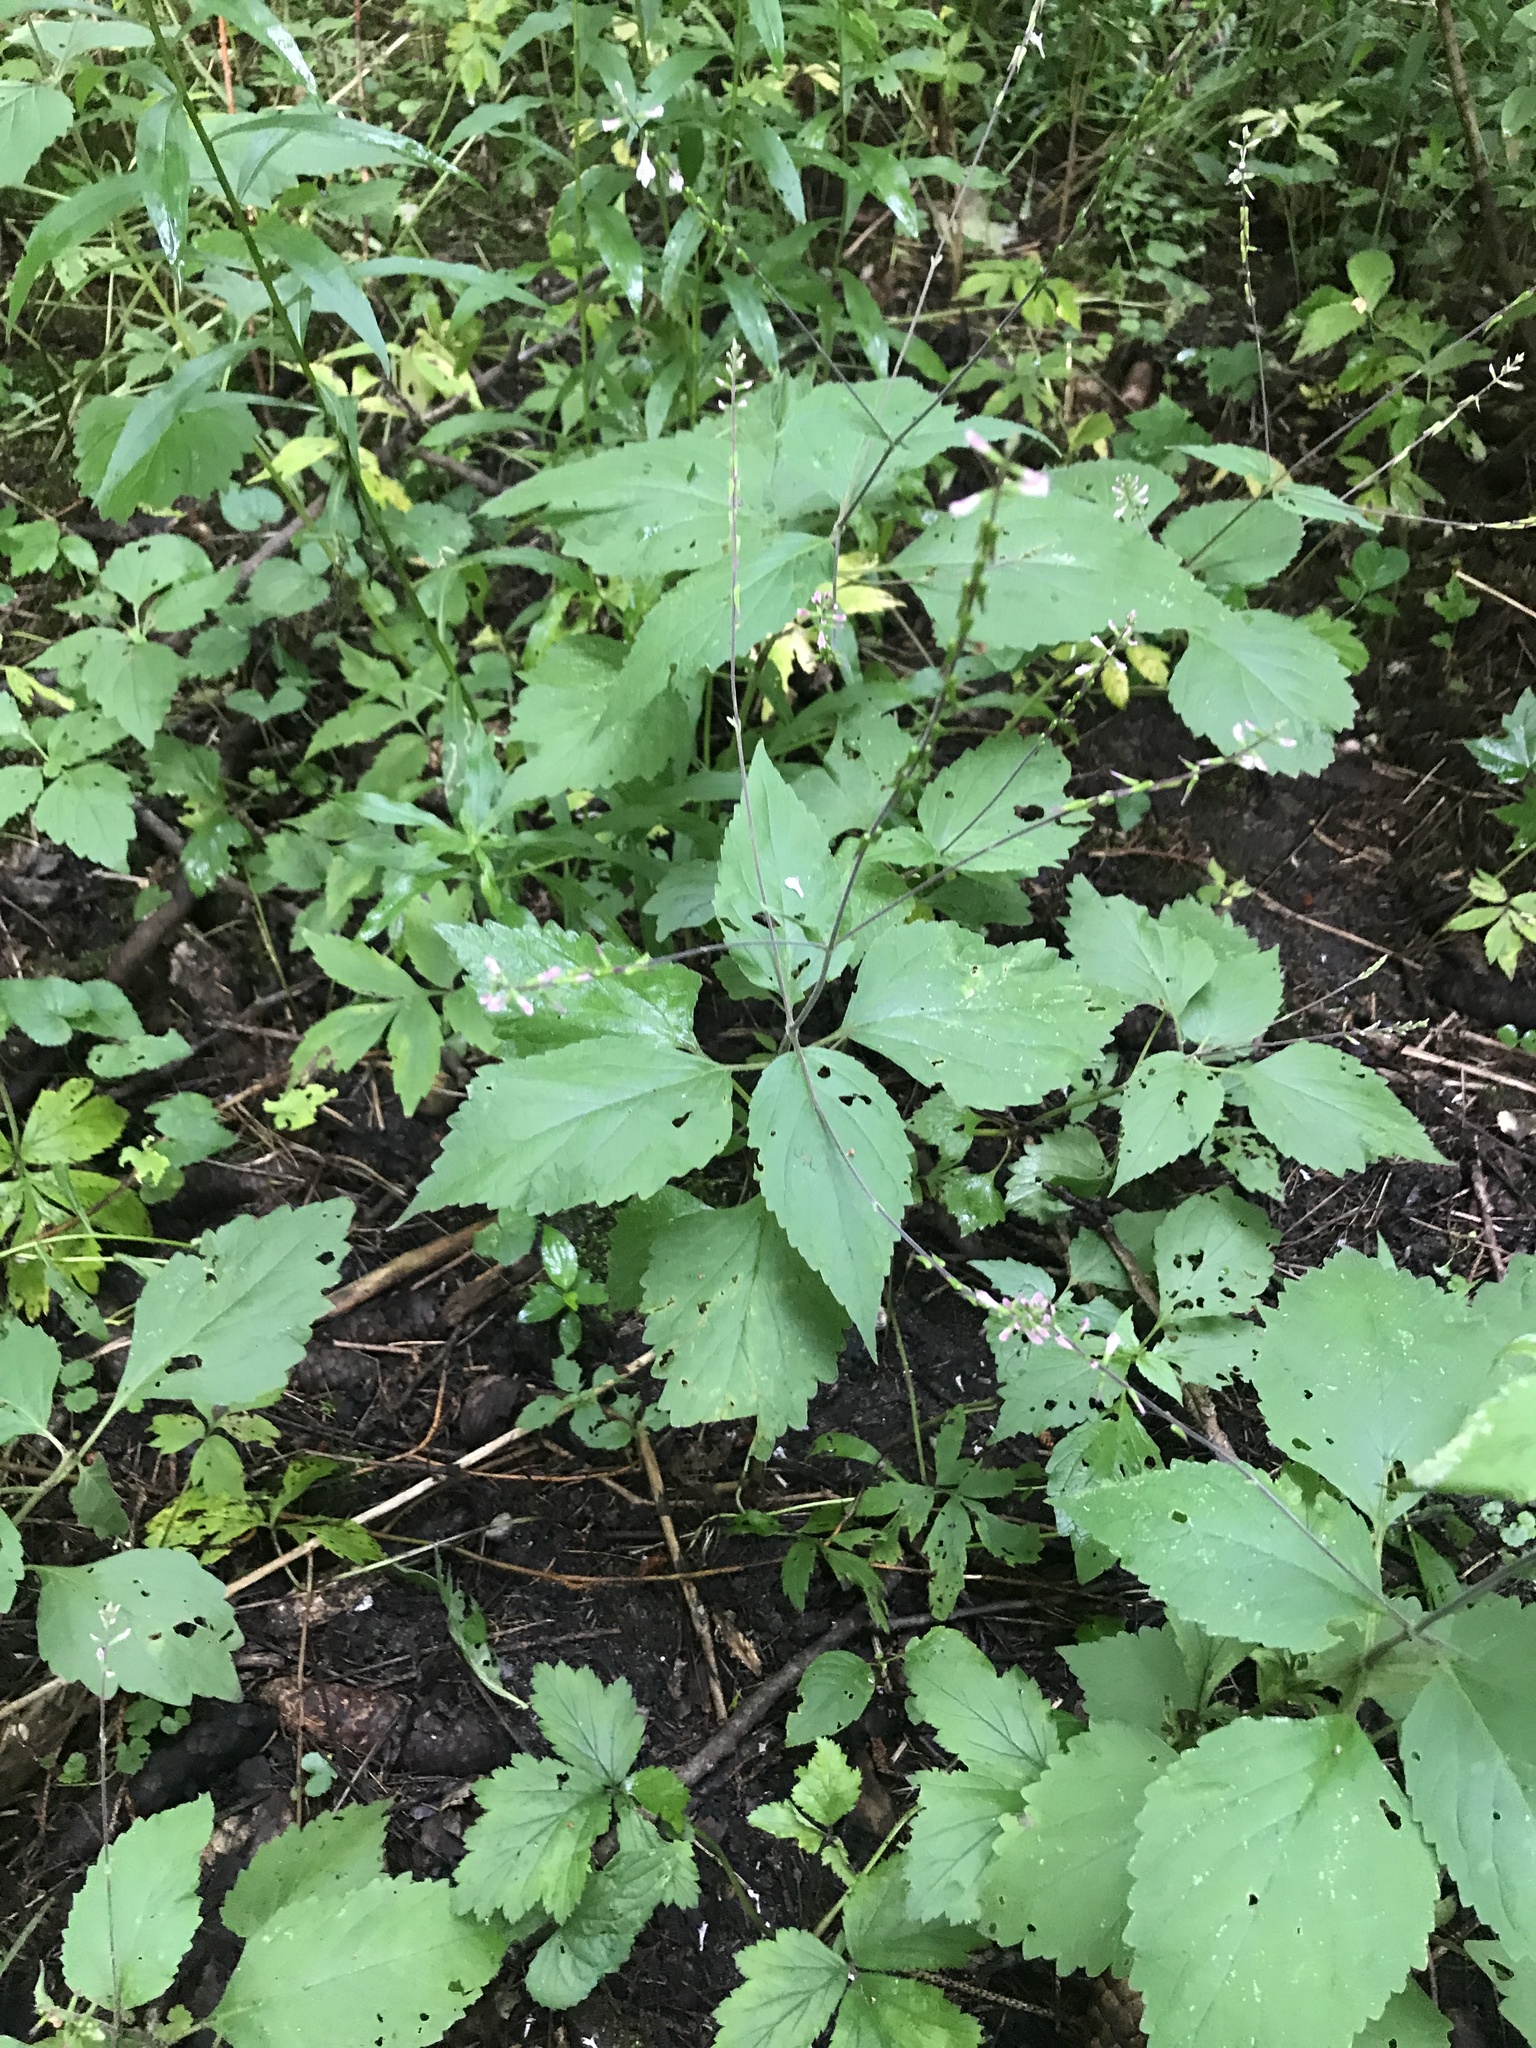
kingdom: Plantae
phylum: Tracheophyta
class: Magnoliopsida
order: Lamiales
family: Phrymaceae
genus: Phryma
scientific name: Phryma leptostachya
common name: American lopseed
